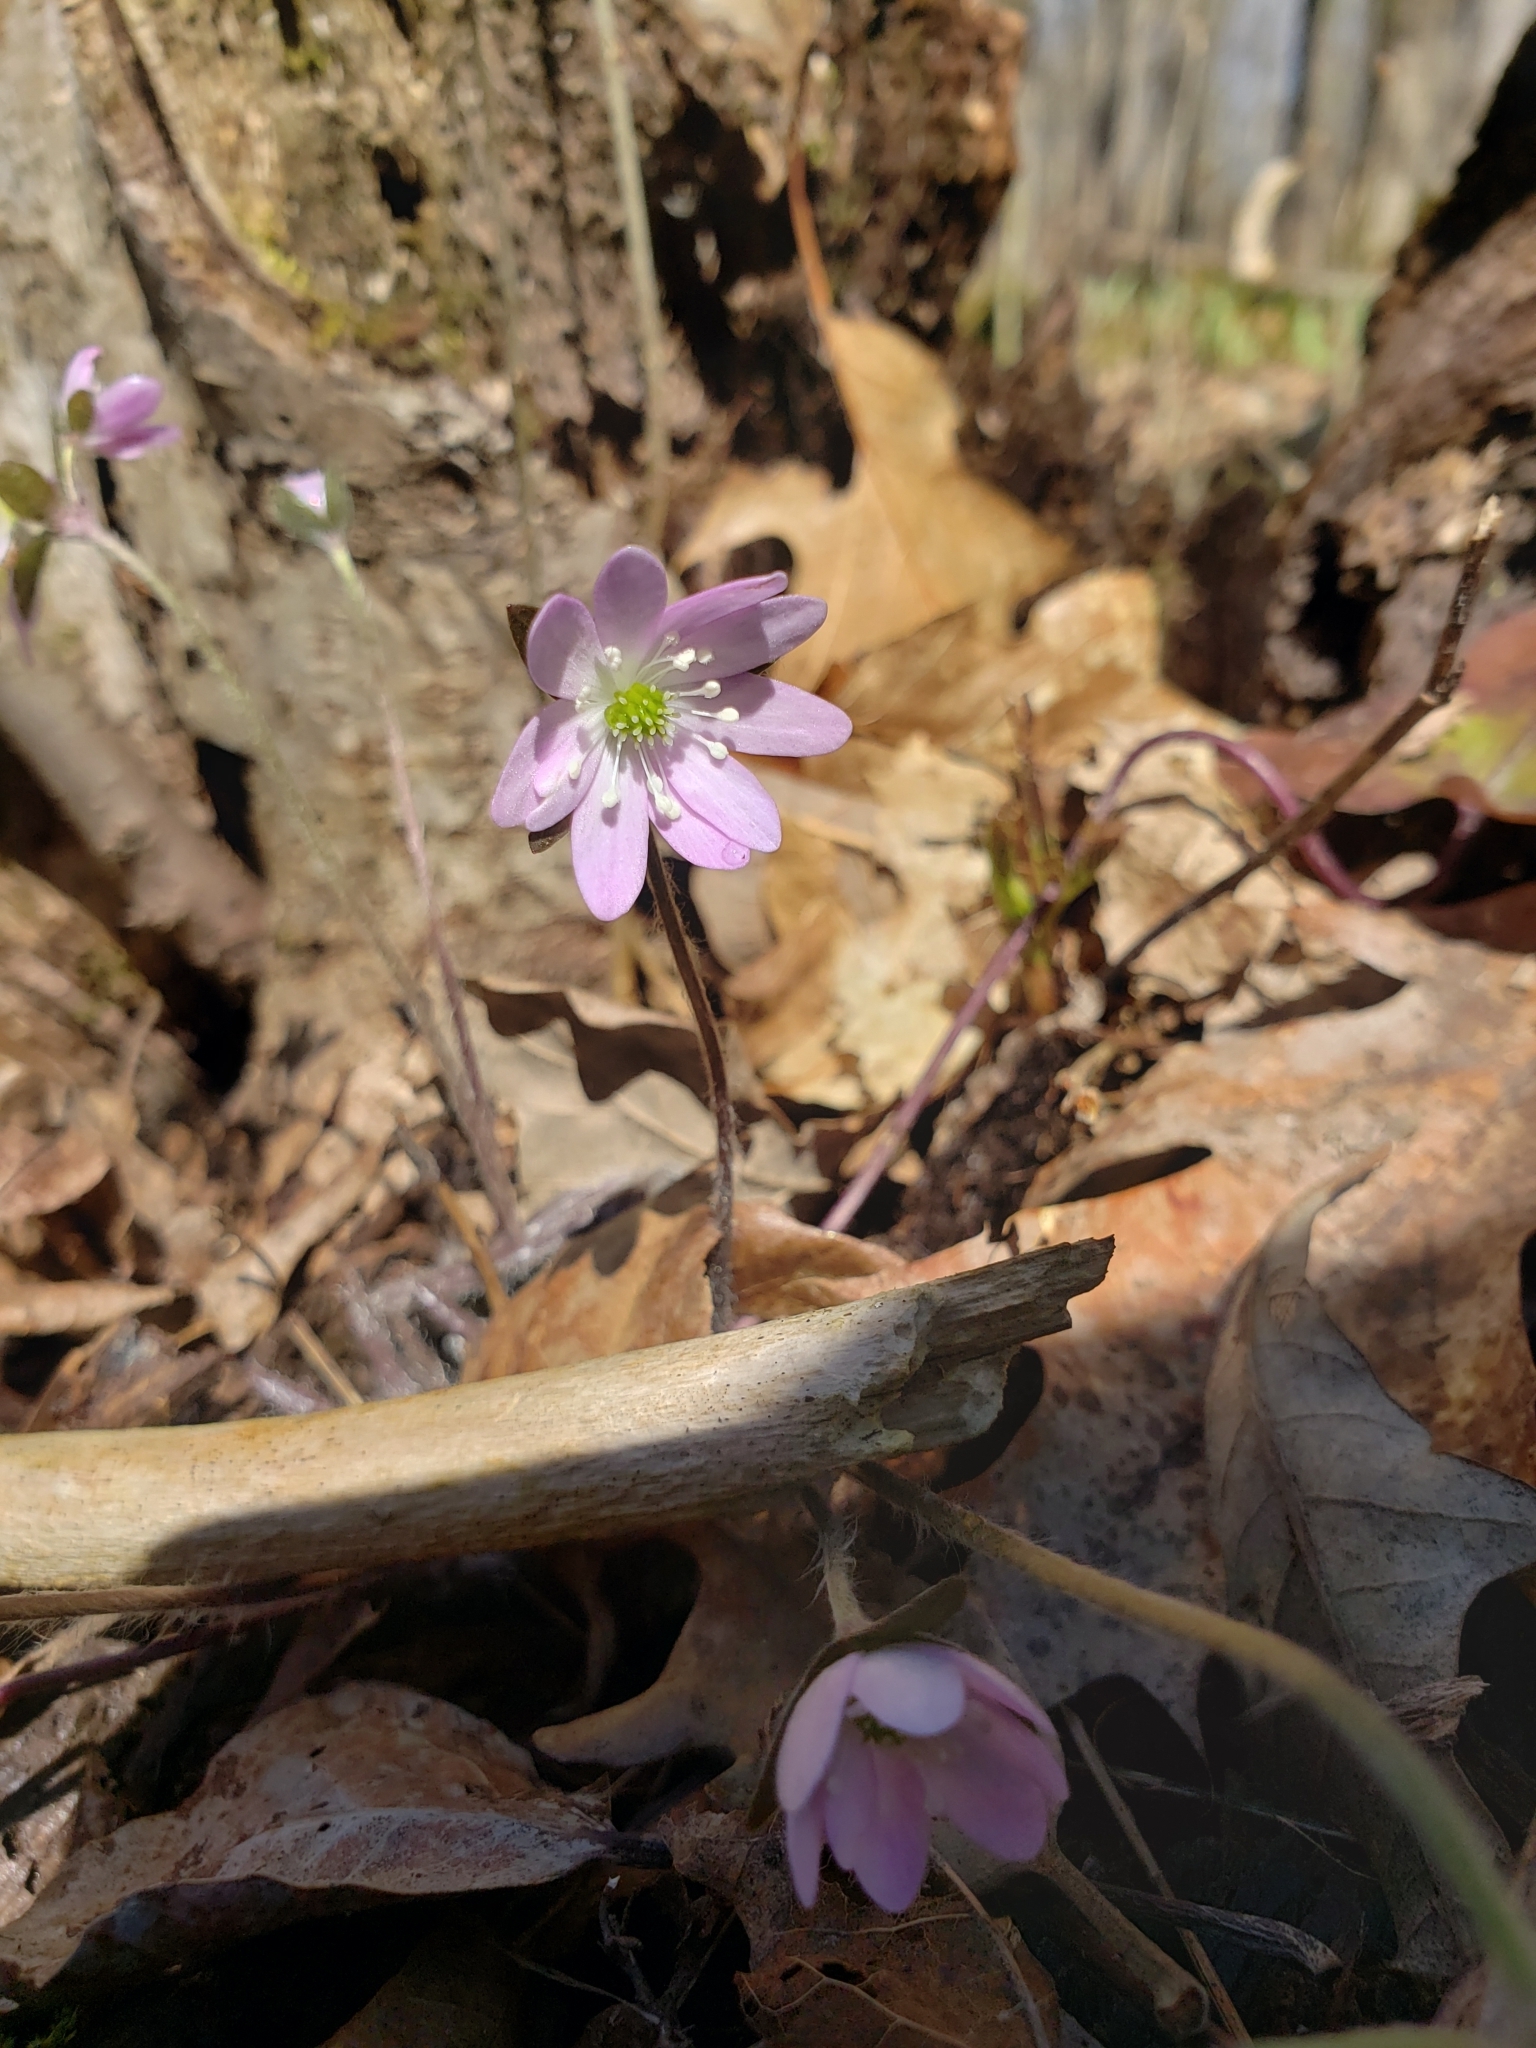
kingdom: Plantae
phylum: Tracheophyta
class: Magnoliopsida
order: Ranunculales
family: Ranunculaceae
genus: Hepatica
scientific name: Hepatica acutiloba
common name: Sharp-lobed hepatica
